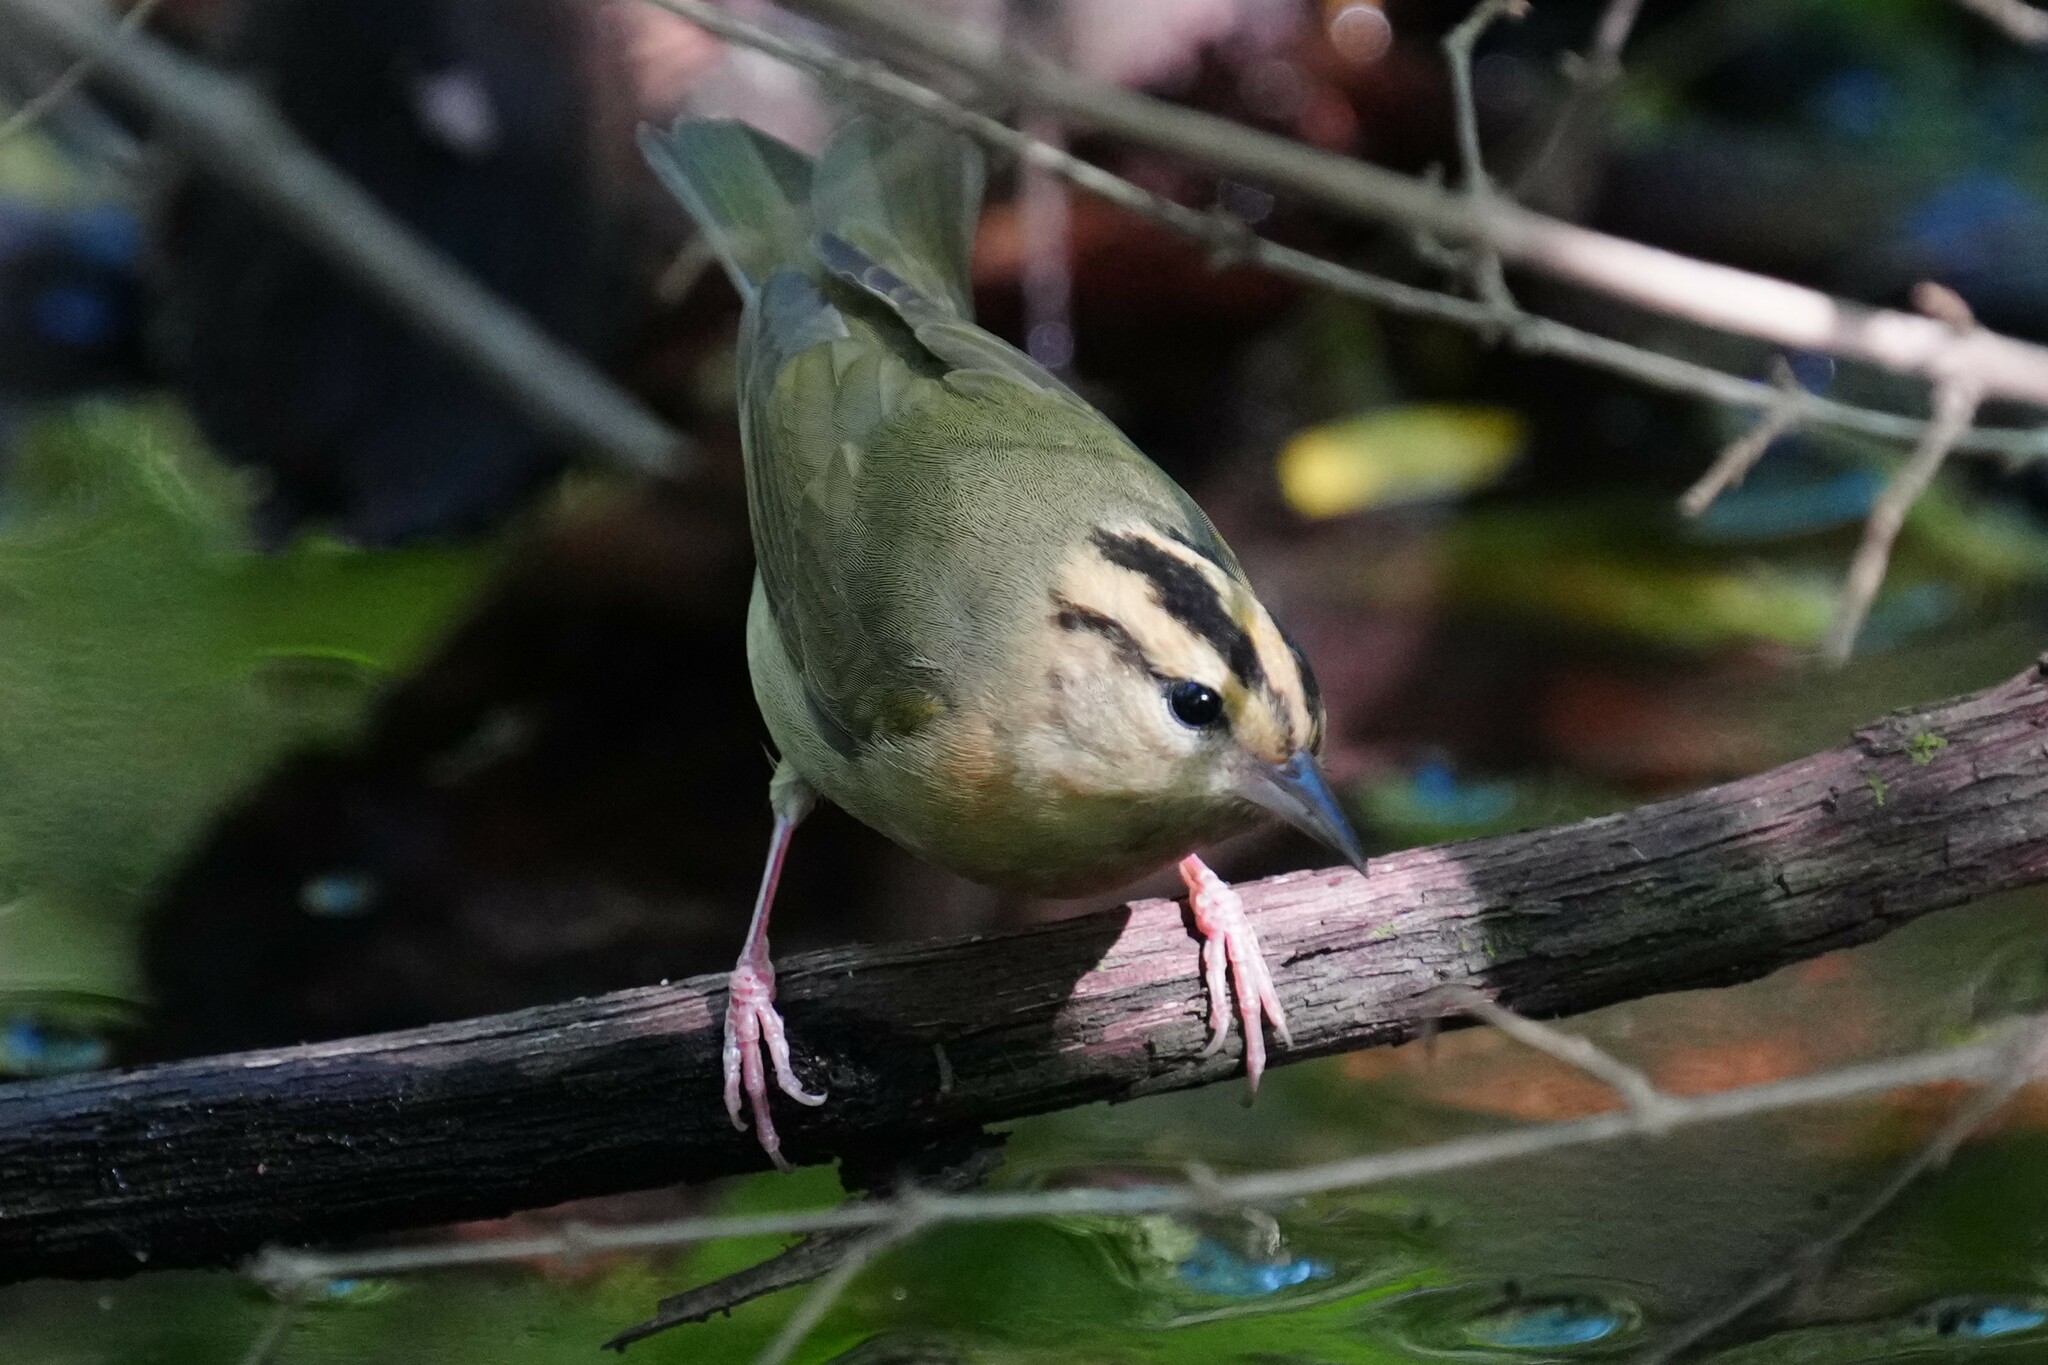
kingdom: Animalia
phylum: Chordata
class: Aves
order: Passeriformes
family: Parulidae
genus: Helmitheros
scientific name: Helmitheros vermivorum
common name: Worm-eating warbler
